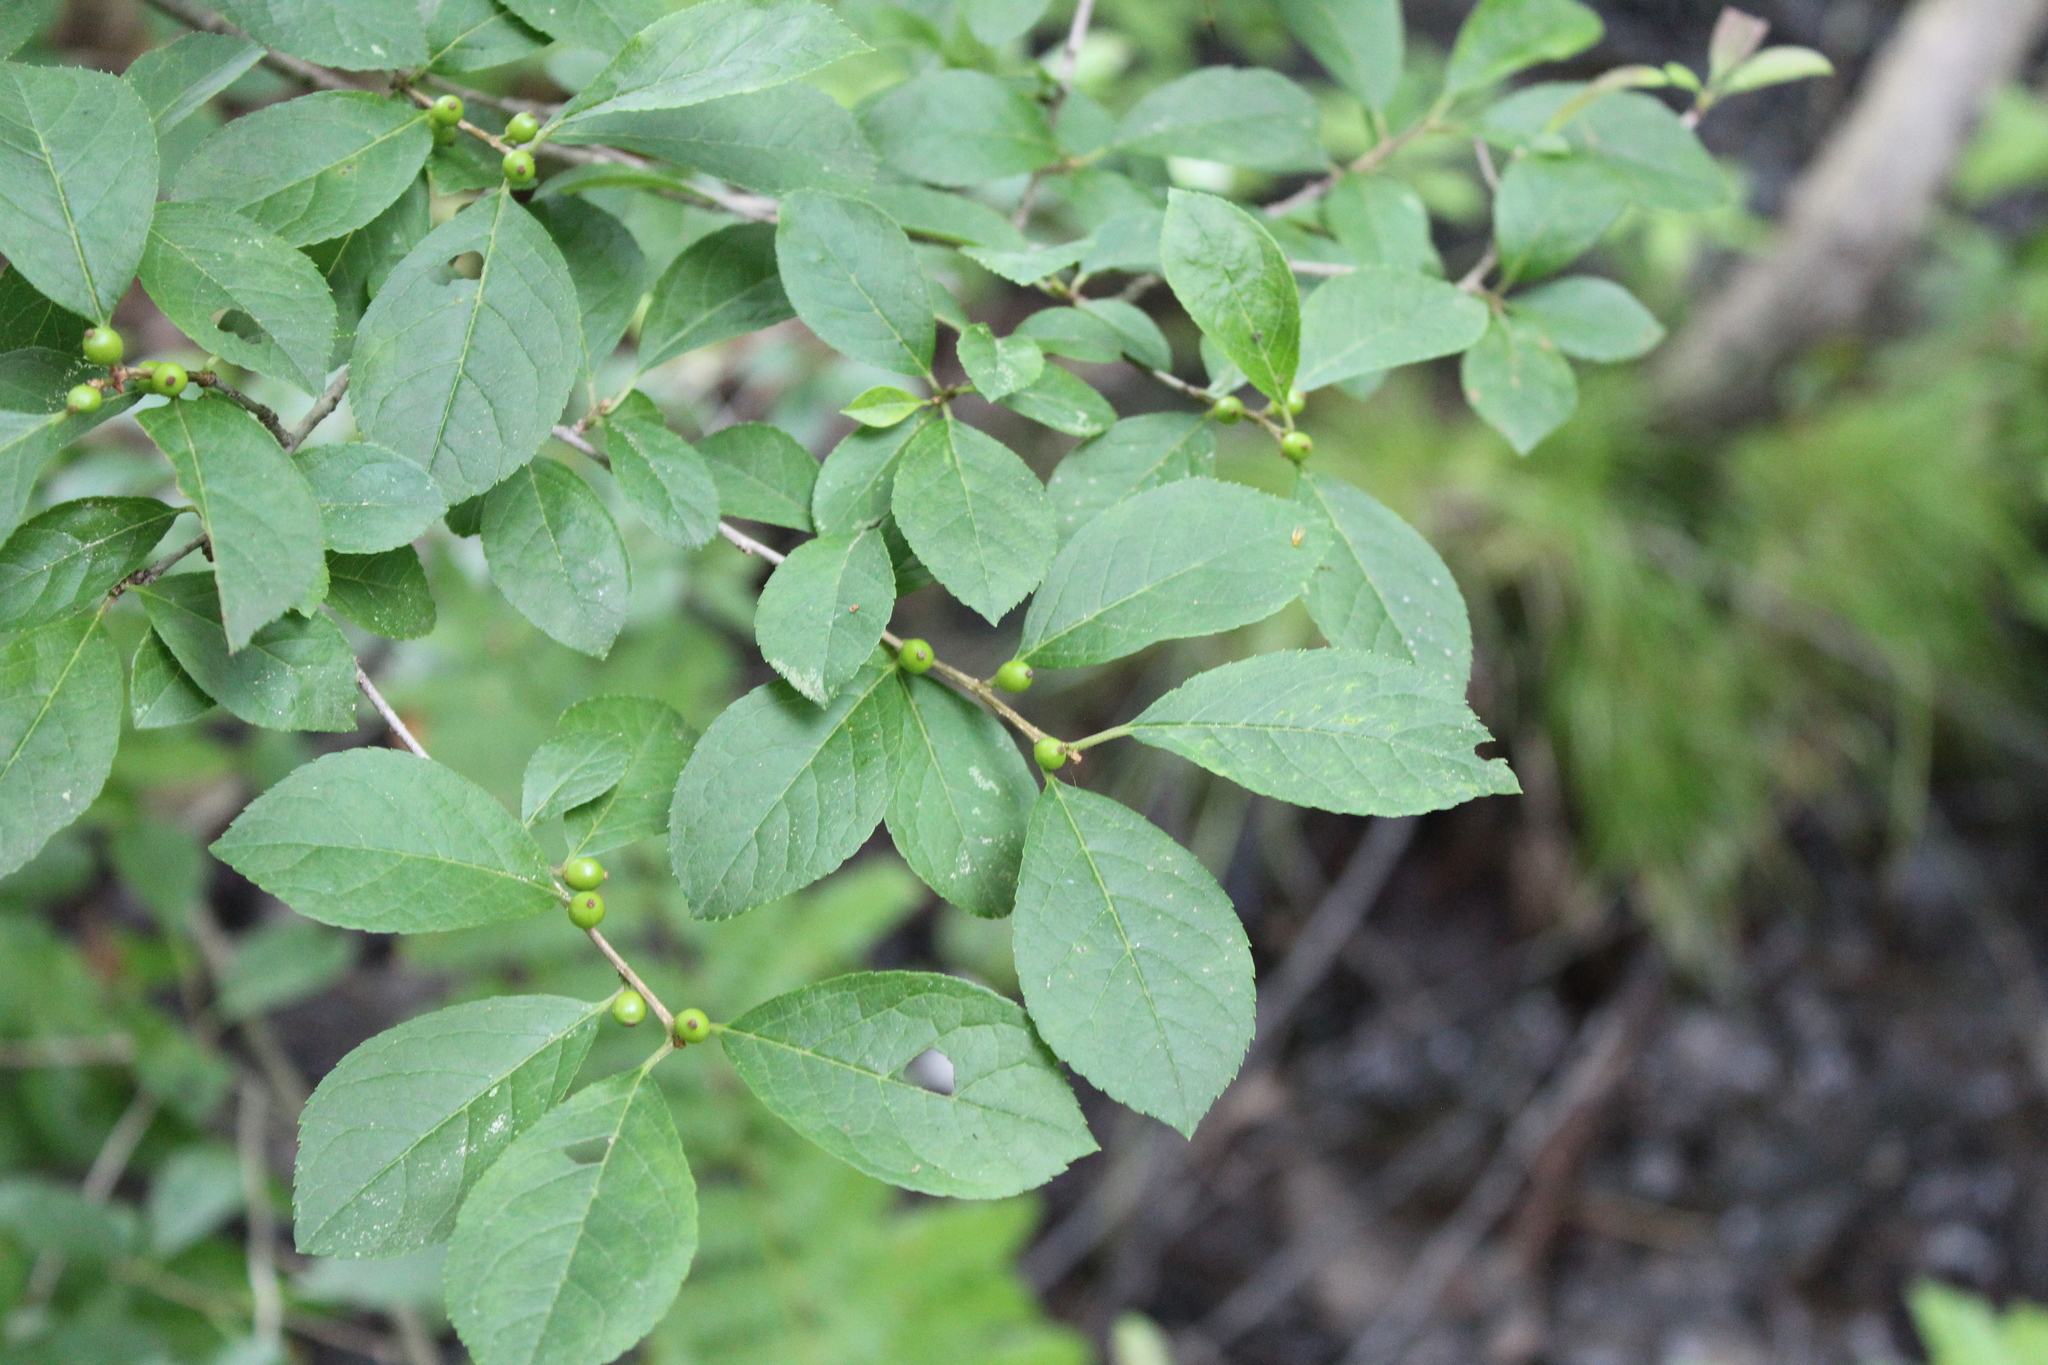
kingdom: Plantae
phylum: Tracheophyta
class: Magnoliopsida
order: Aquifoliales
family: Aquifoliaceae
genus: Ilex
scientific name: Ilex verticillata
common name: Virginia winterberry
